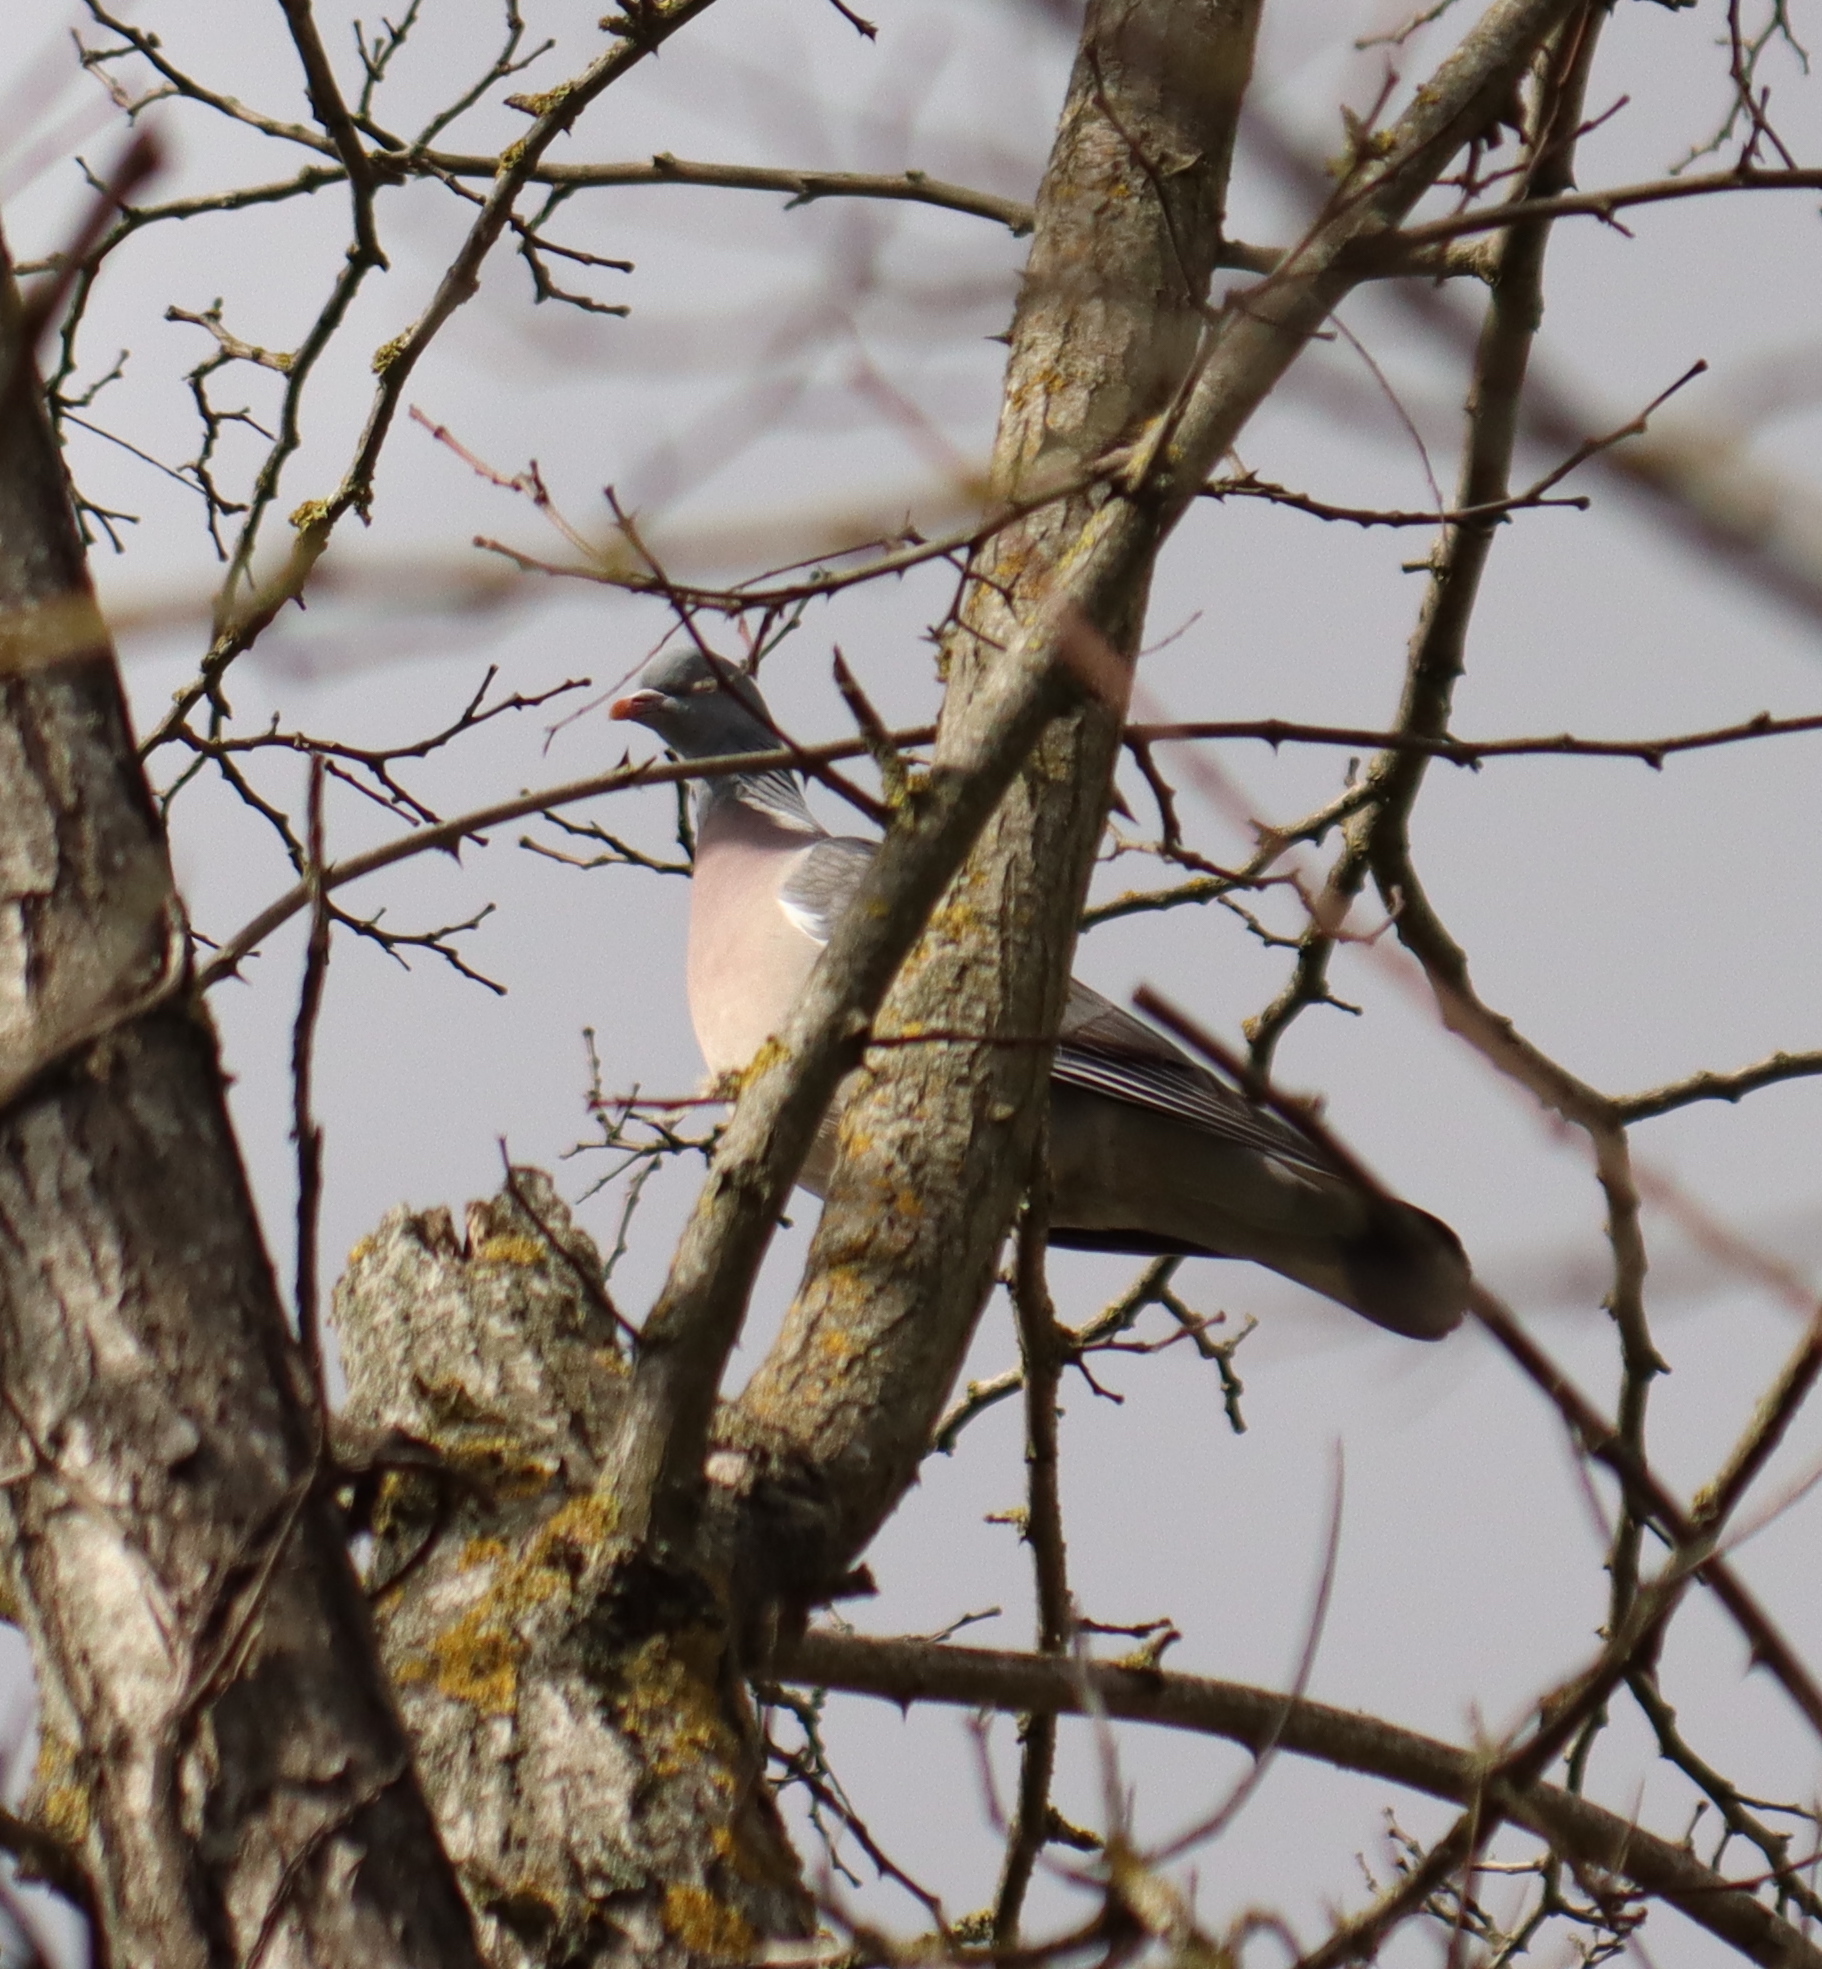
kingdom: Animalia
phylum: Chordata
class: Aves
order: Columbiformes
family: Columbidae
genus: Columba
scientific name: Columba palumbus
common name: Common wood pigeon
